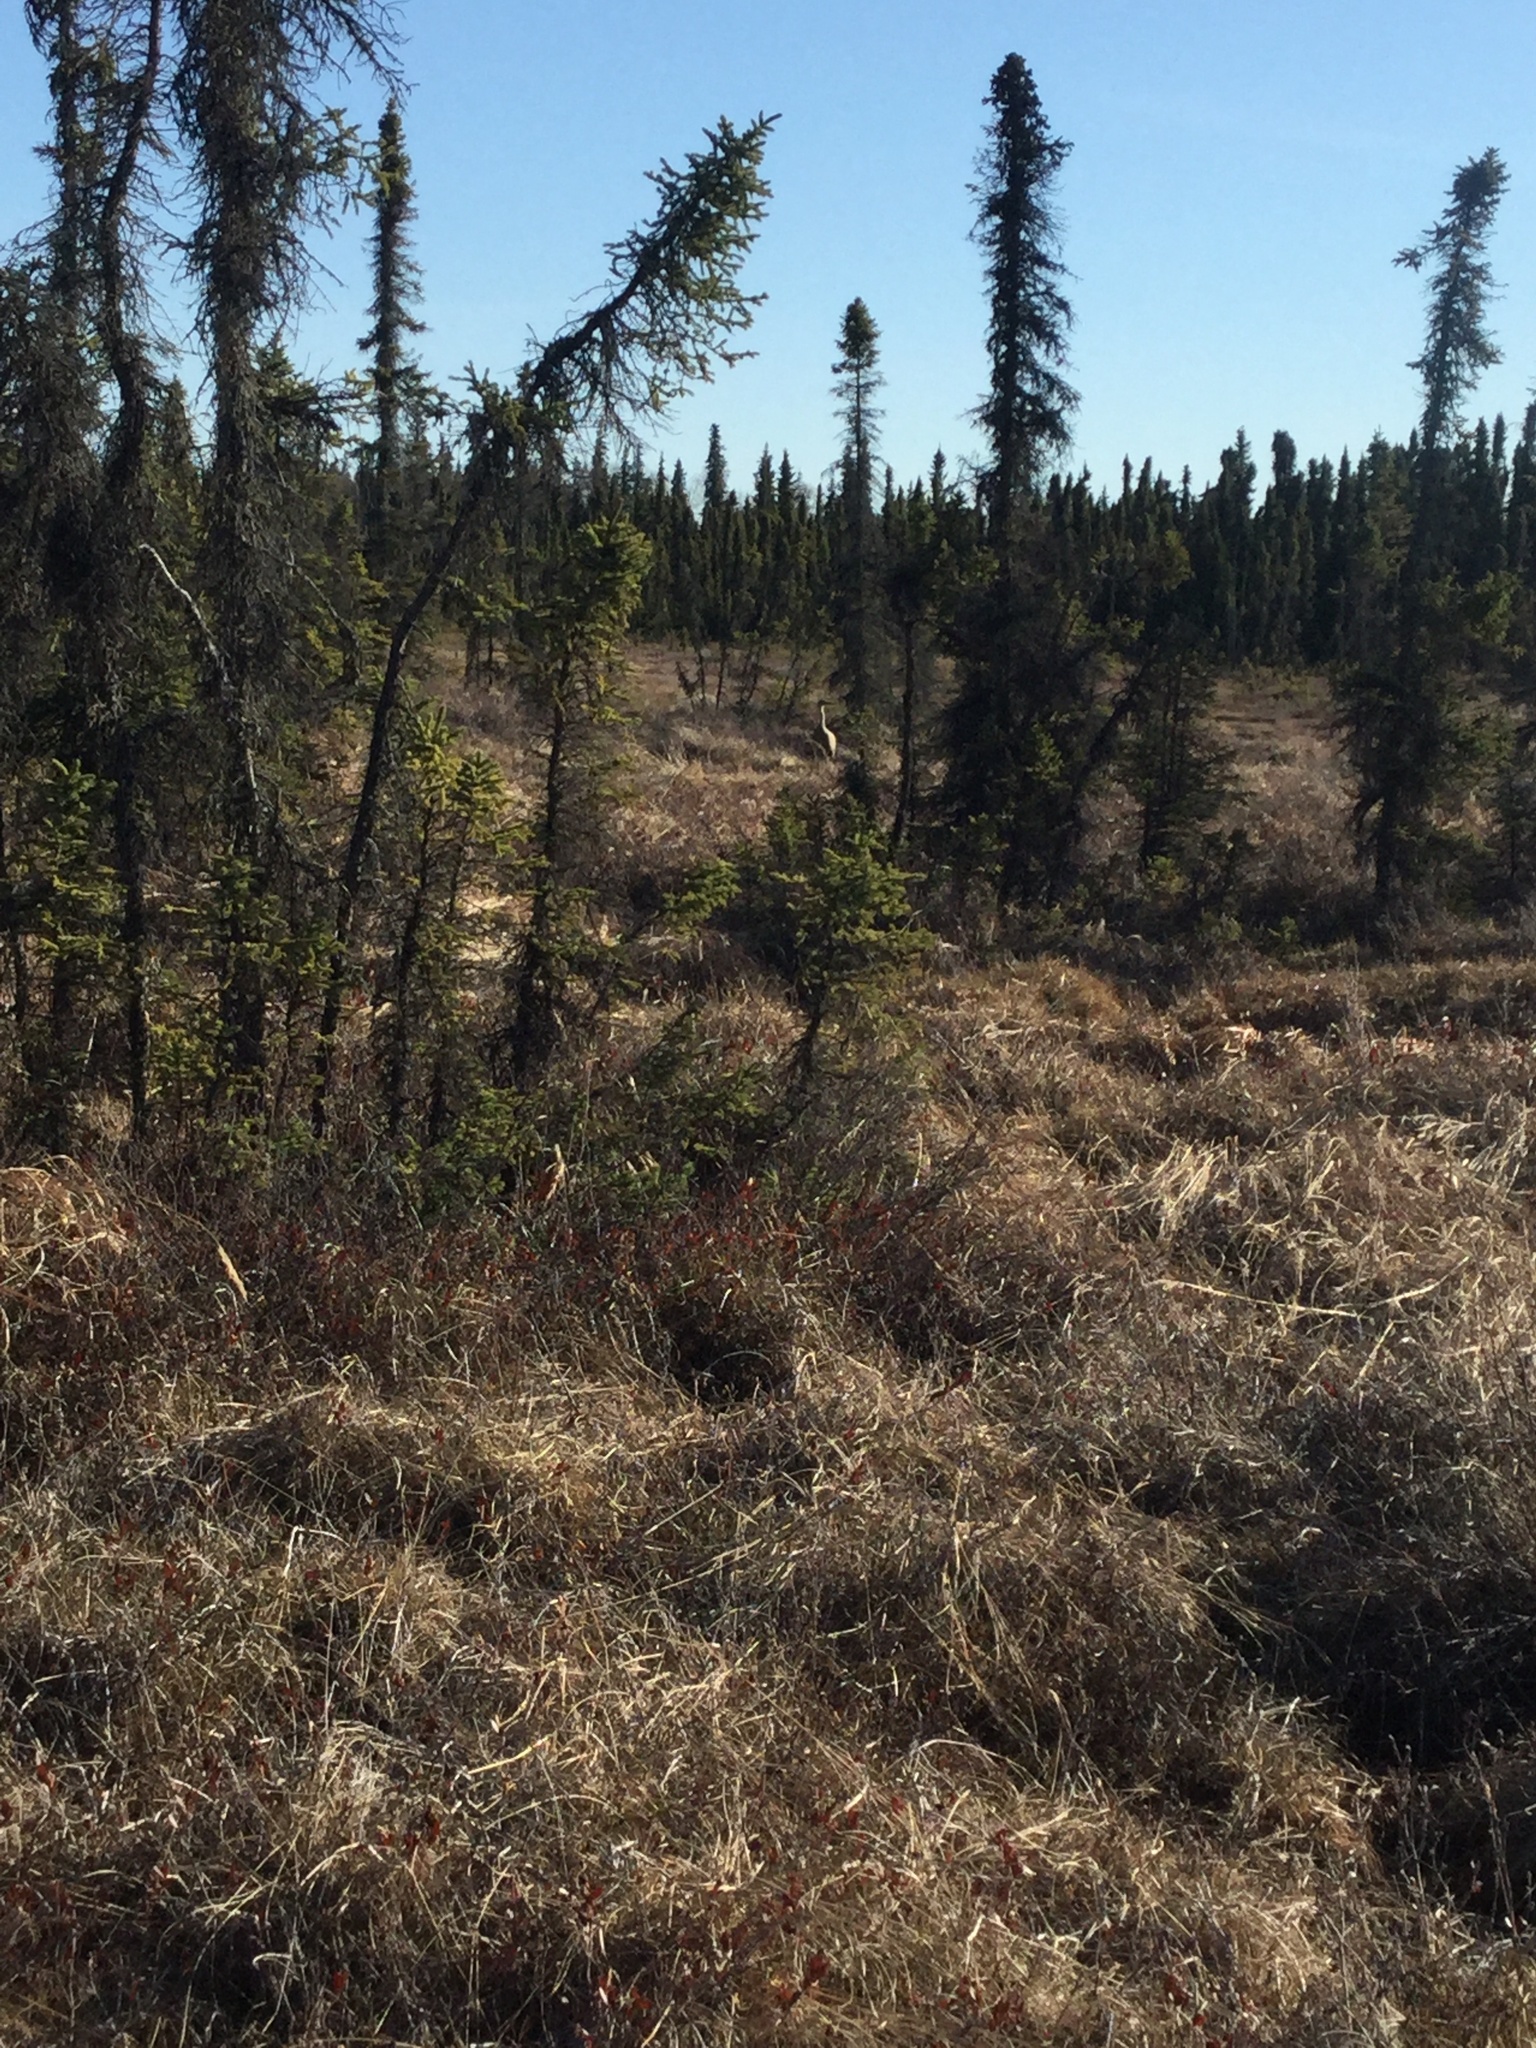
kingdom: Animalia
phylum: Chordata
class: Aves
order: Gruiformes
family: Gruidae
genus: Grus
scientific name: Grus canadensis
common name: Sandhill crane
